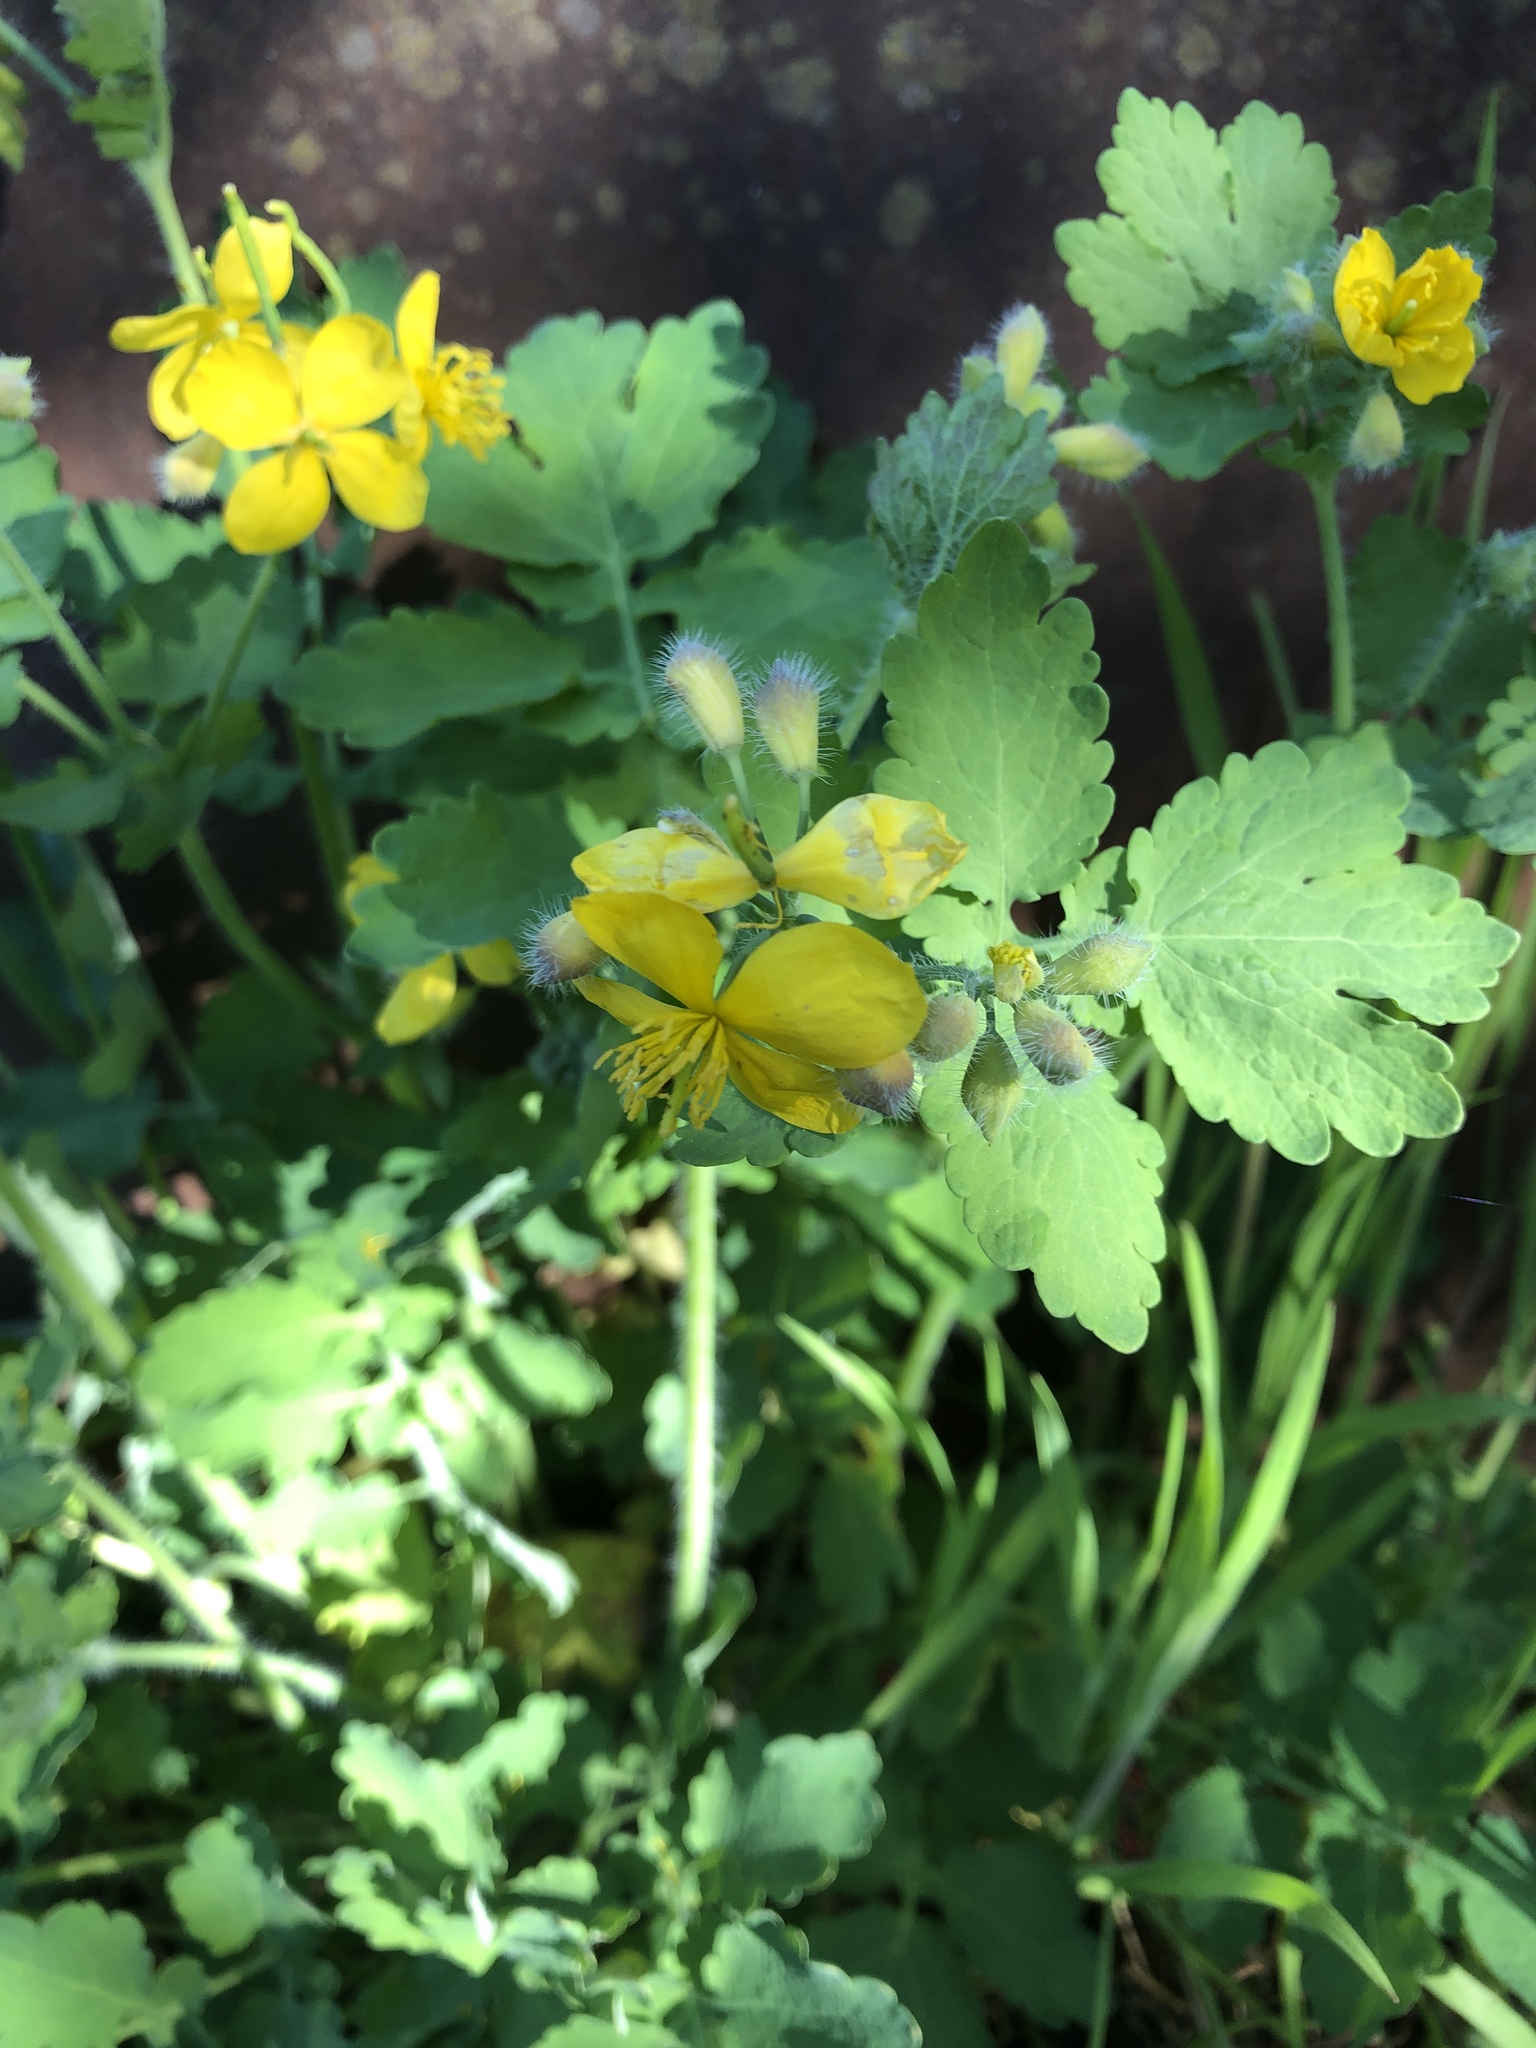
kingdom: Plantae
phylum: Tracheophyta
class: Magnoliopsida
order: Ranunculales
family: Papaveraceae
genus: Chelidonium
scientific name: Chelidonium majus
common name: Greater celandine
